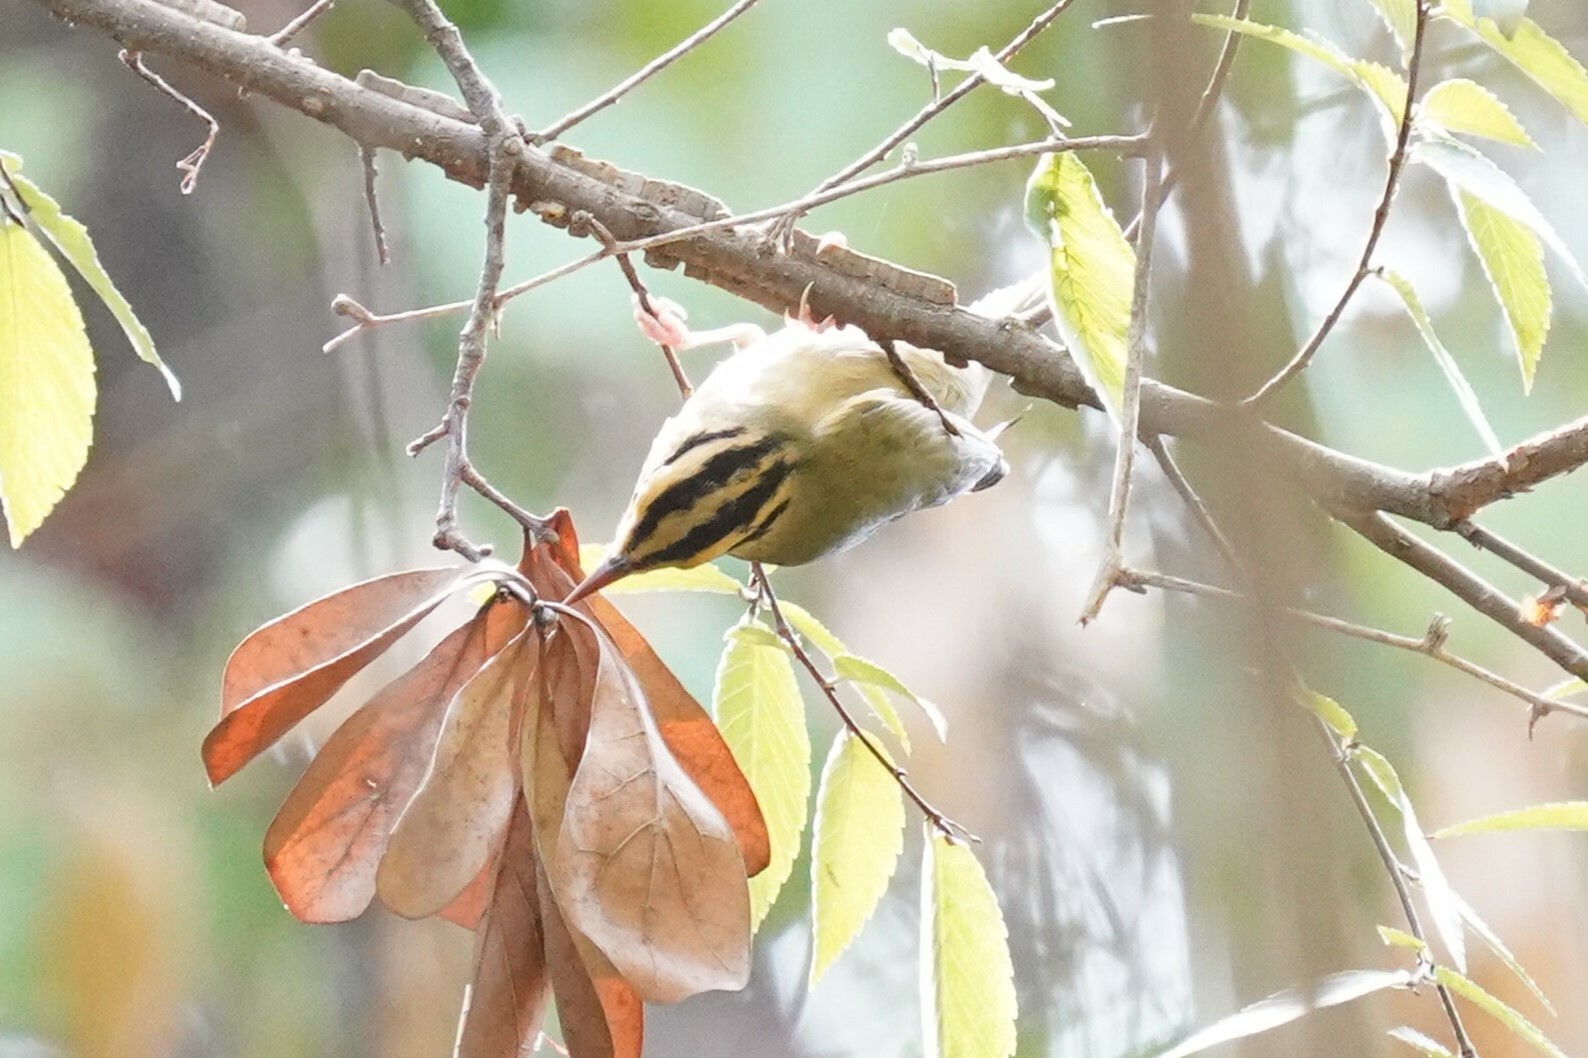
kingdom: Animalia
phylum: Chordata
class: Aves
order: Passeriformes
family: Parulidae
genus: Helmitheros
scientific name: Helmitheros vermivorum
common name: Worm-eating warbler
